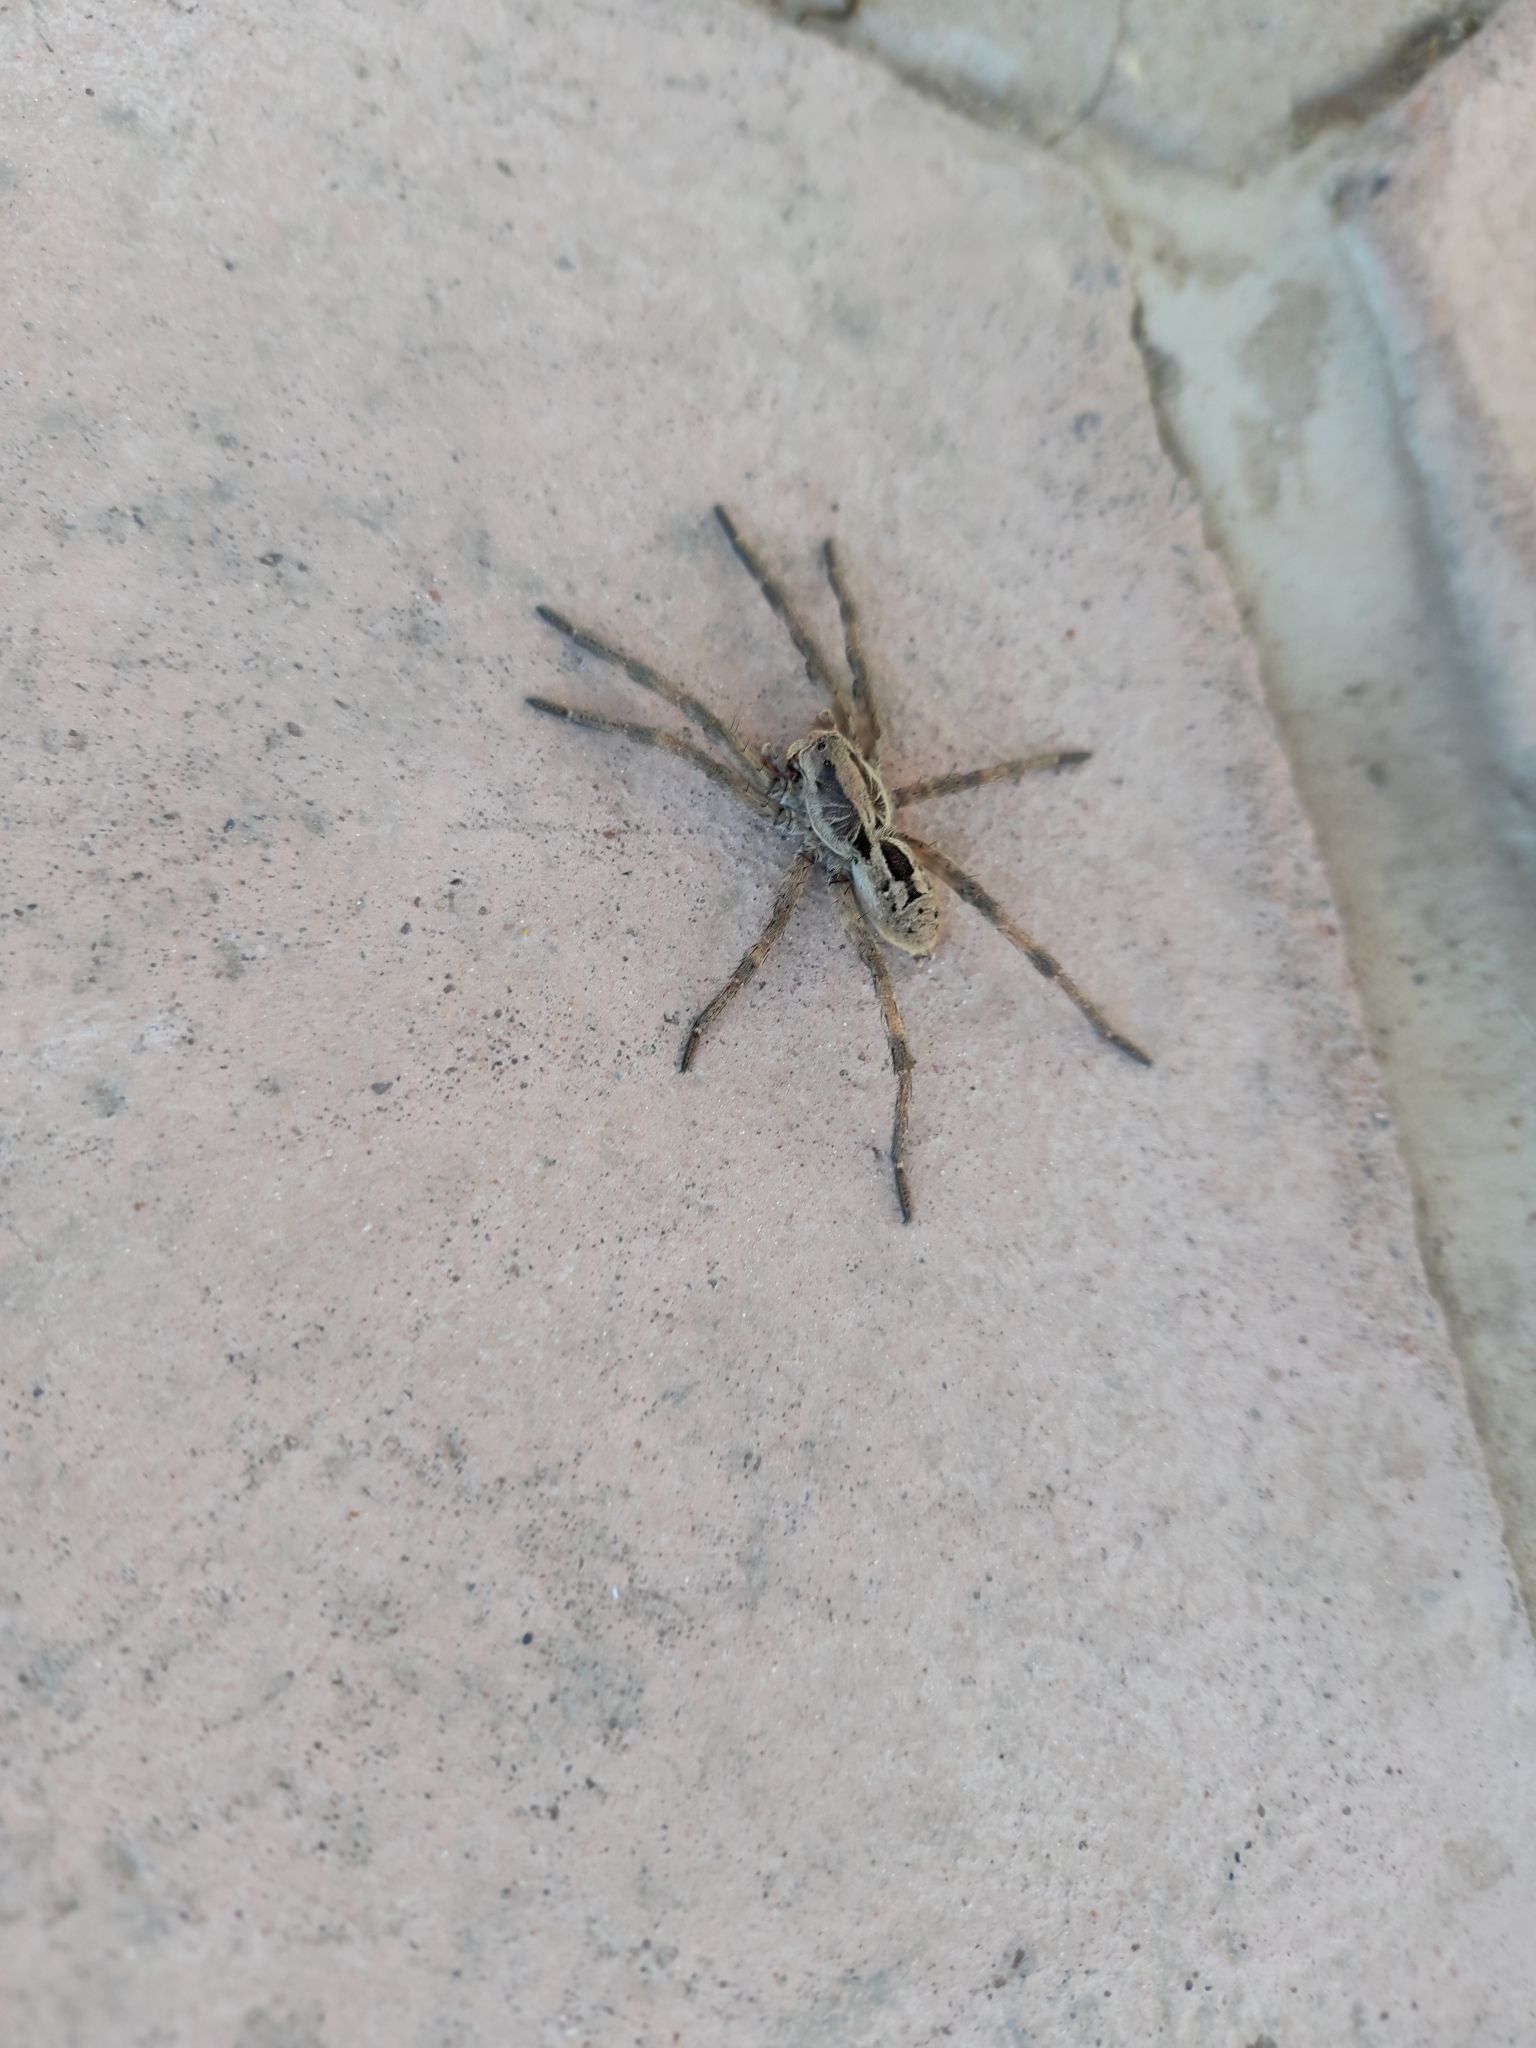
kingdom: Animalia
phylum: Arthropoda
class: Arachnida
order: Araneae
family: Lycosidae
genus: Lycosa
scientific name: Lycosa erythrognatha
